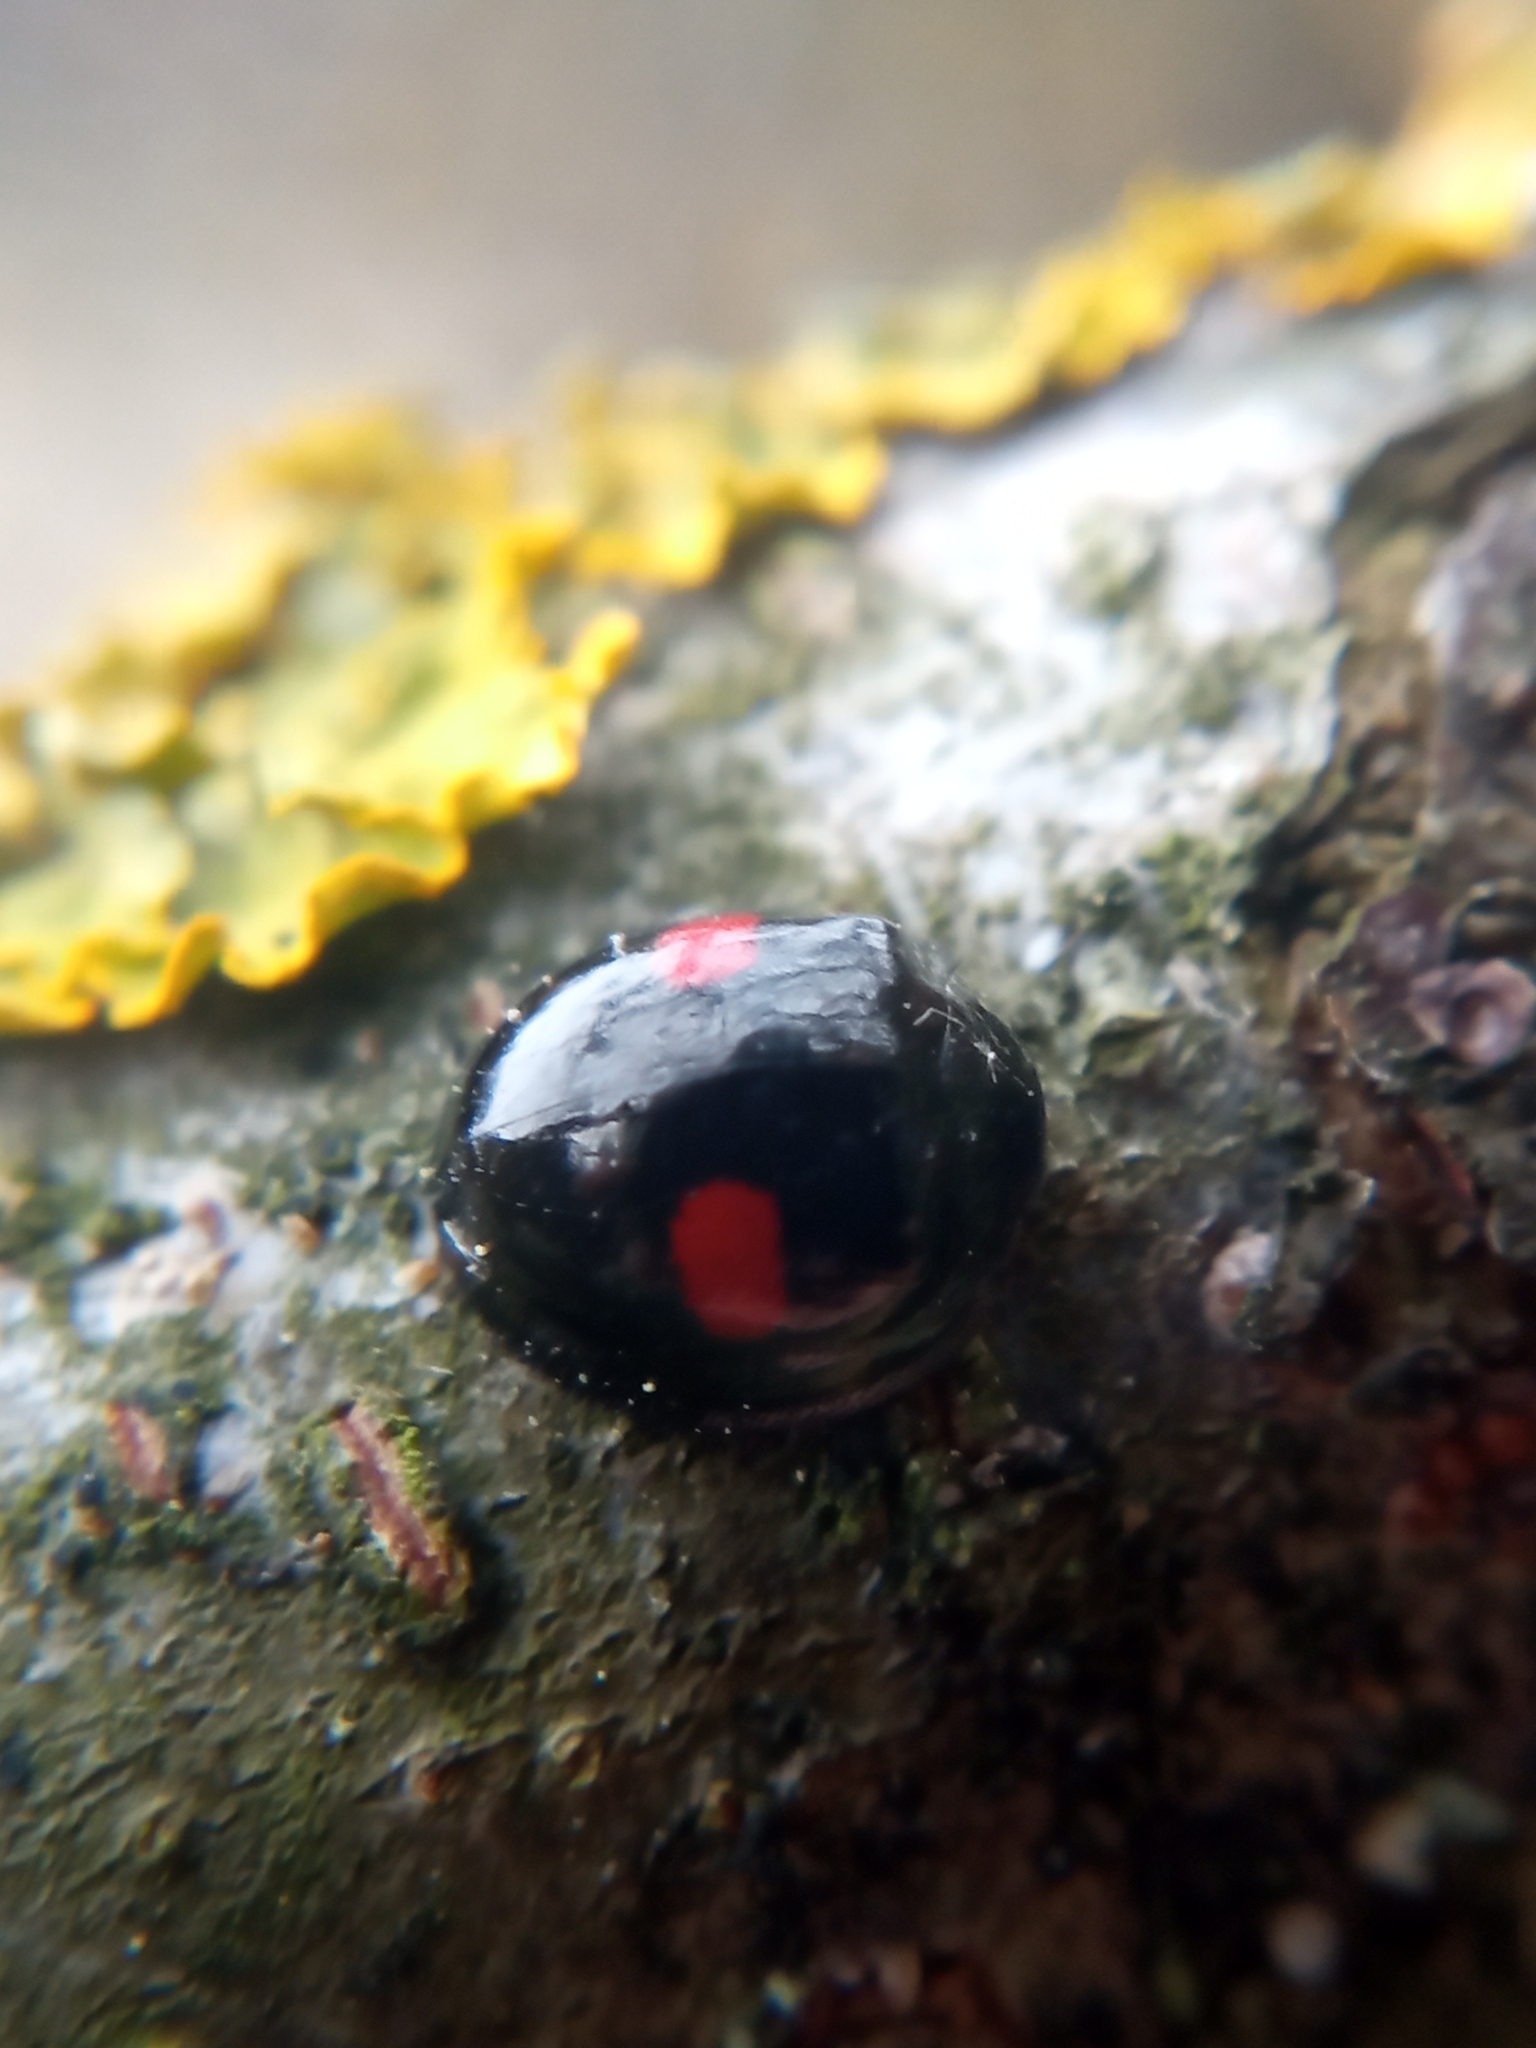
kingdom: Animalia
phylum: Arthropoda
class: Insecta
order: Coleoptera
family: Coccinellidae
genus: Chilocorus
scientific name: Chilocorus renipustulatus
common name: Kidney-spot ladybird
